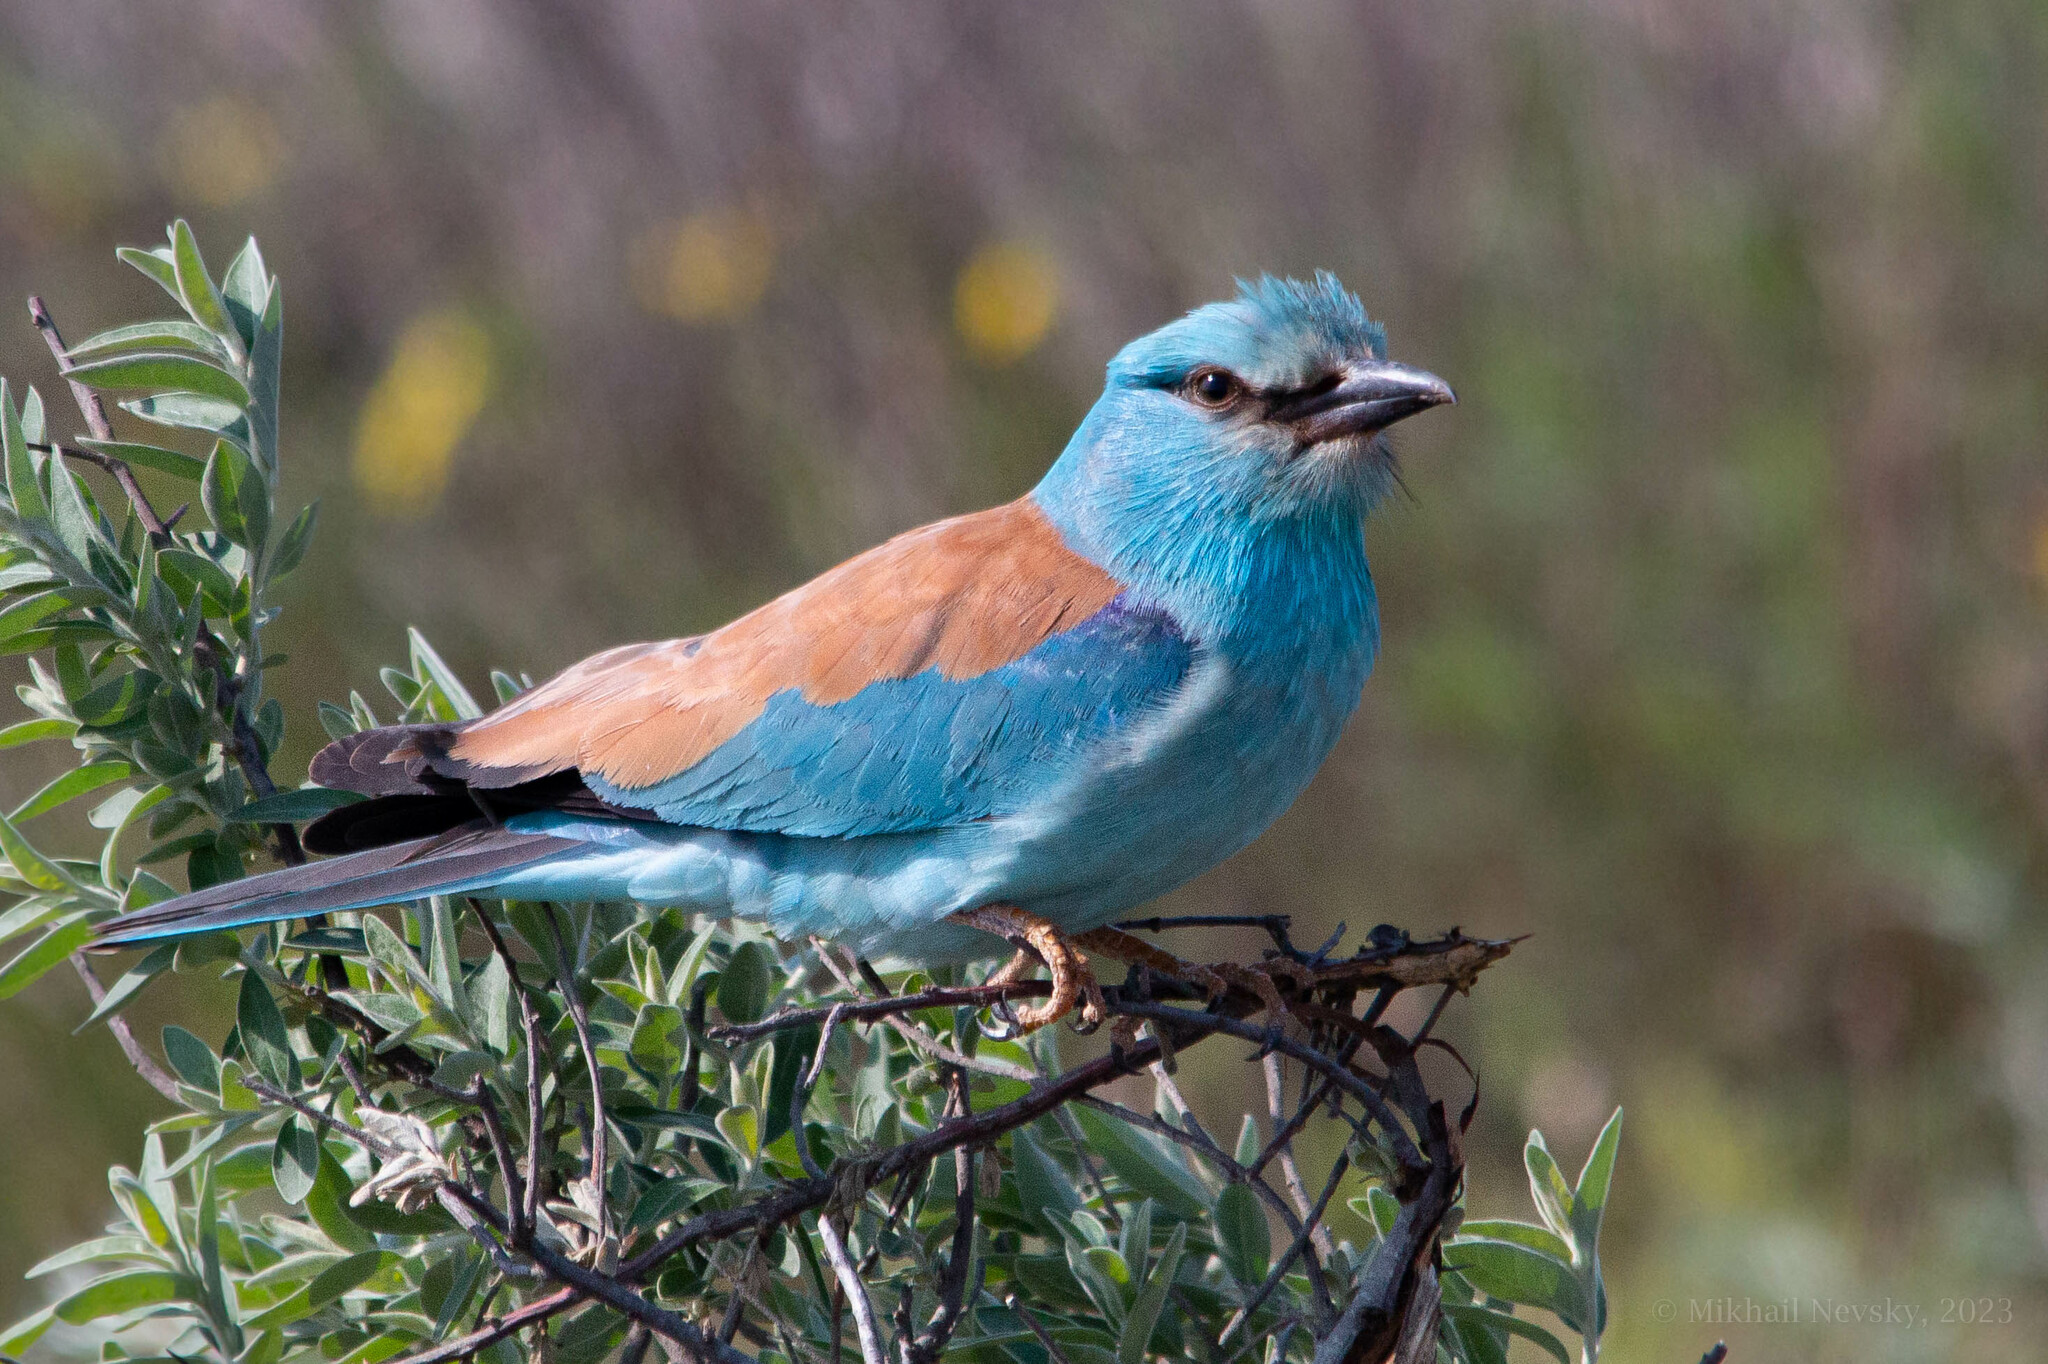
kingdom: Animalia
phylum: Chordata
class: Aves
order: Coraciiformes
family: Coraciidae
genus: Coracias
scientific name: Coracias garrulus
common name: European roller
